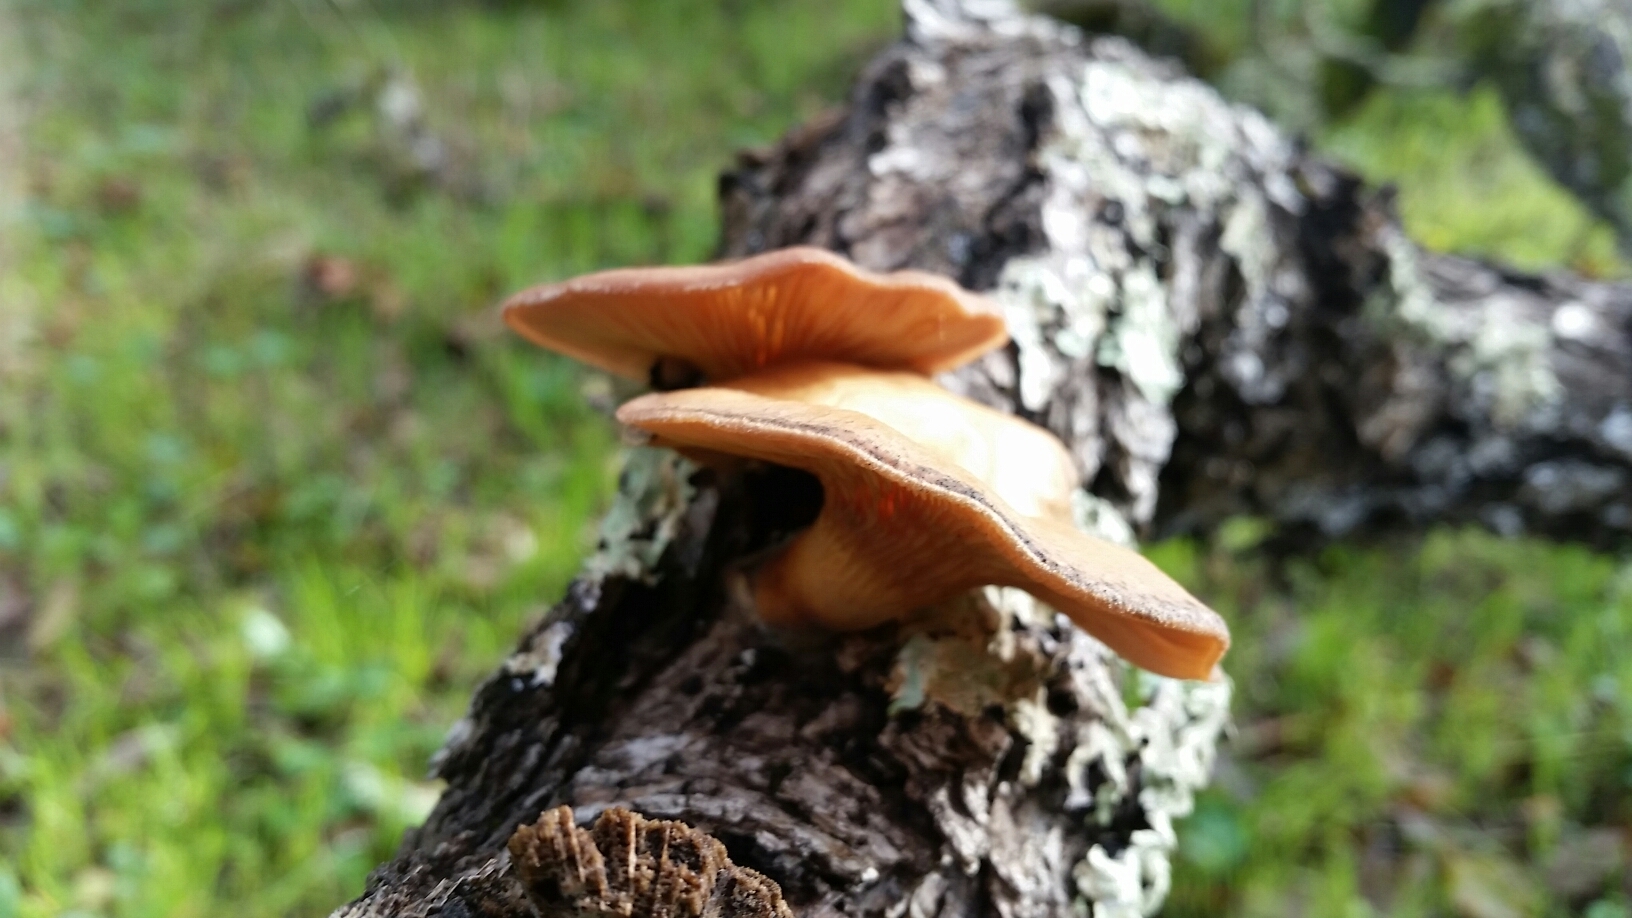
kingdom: Fungi
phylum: Basidiomycota
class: Agaricomycetes
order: Polyporales
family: Panaceae
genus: Panus
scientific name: Panus conchatus
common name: Lilac oysterling
